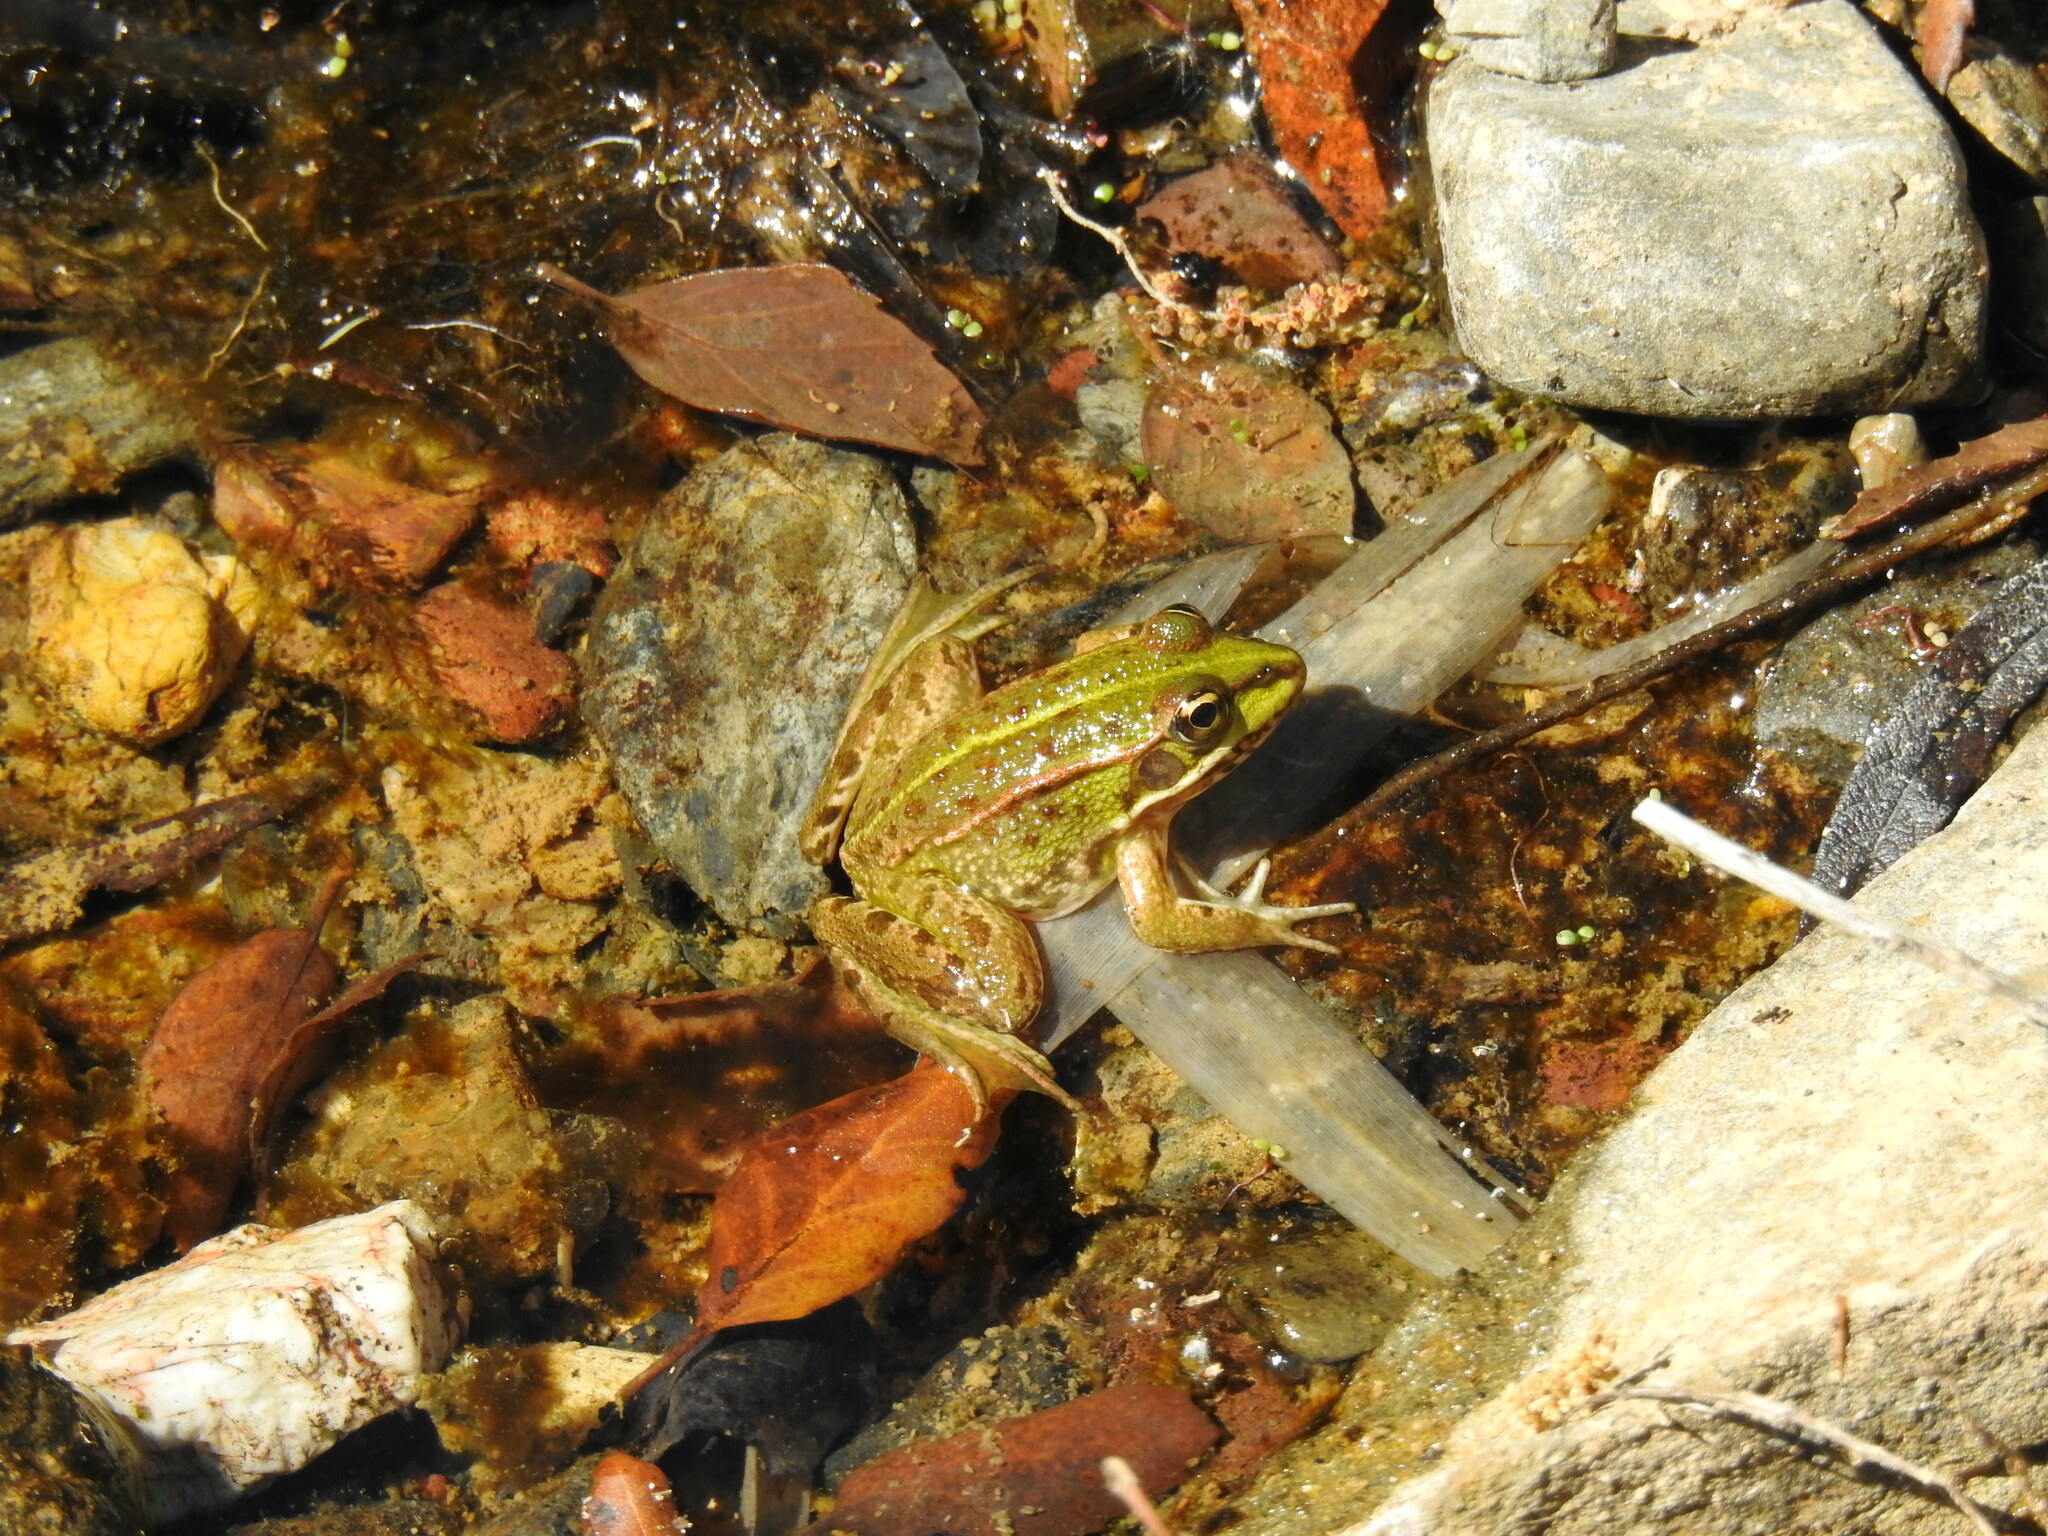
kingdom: Animalia
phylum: Chordata
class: Amphibia
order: Anura
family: Ranidae
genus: Pelophylax
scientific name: Pelophylax perezi
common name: Perez's frog
